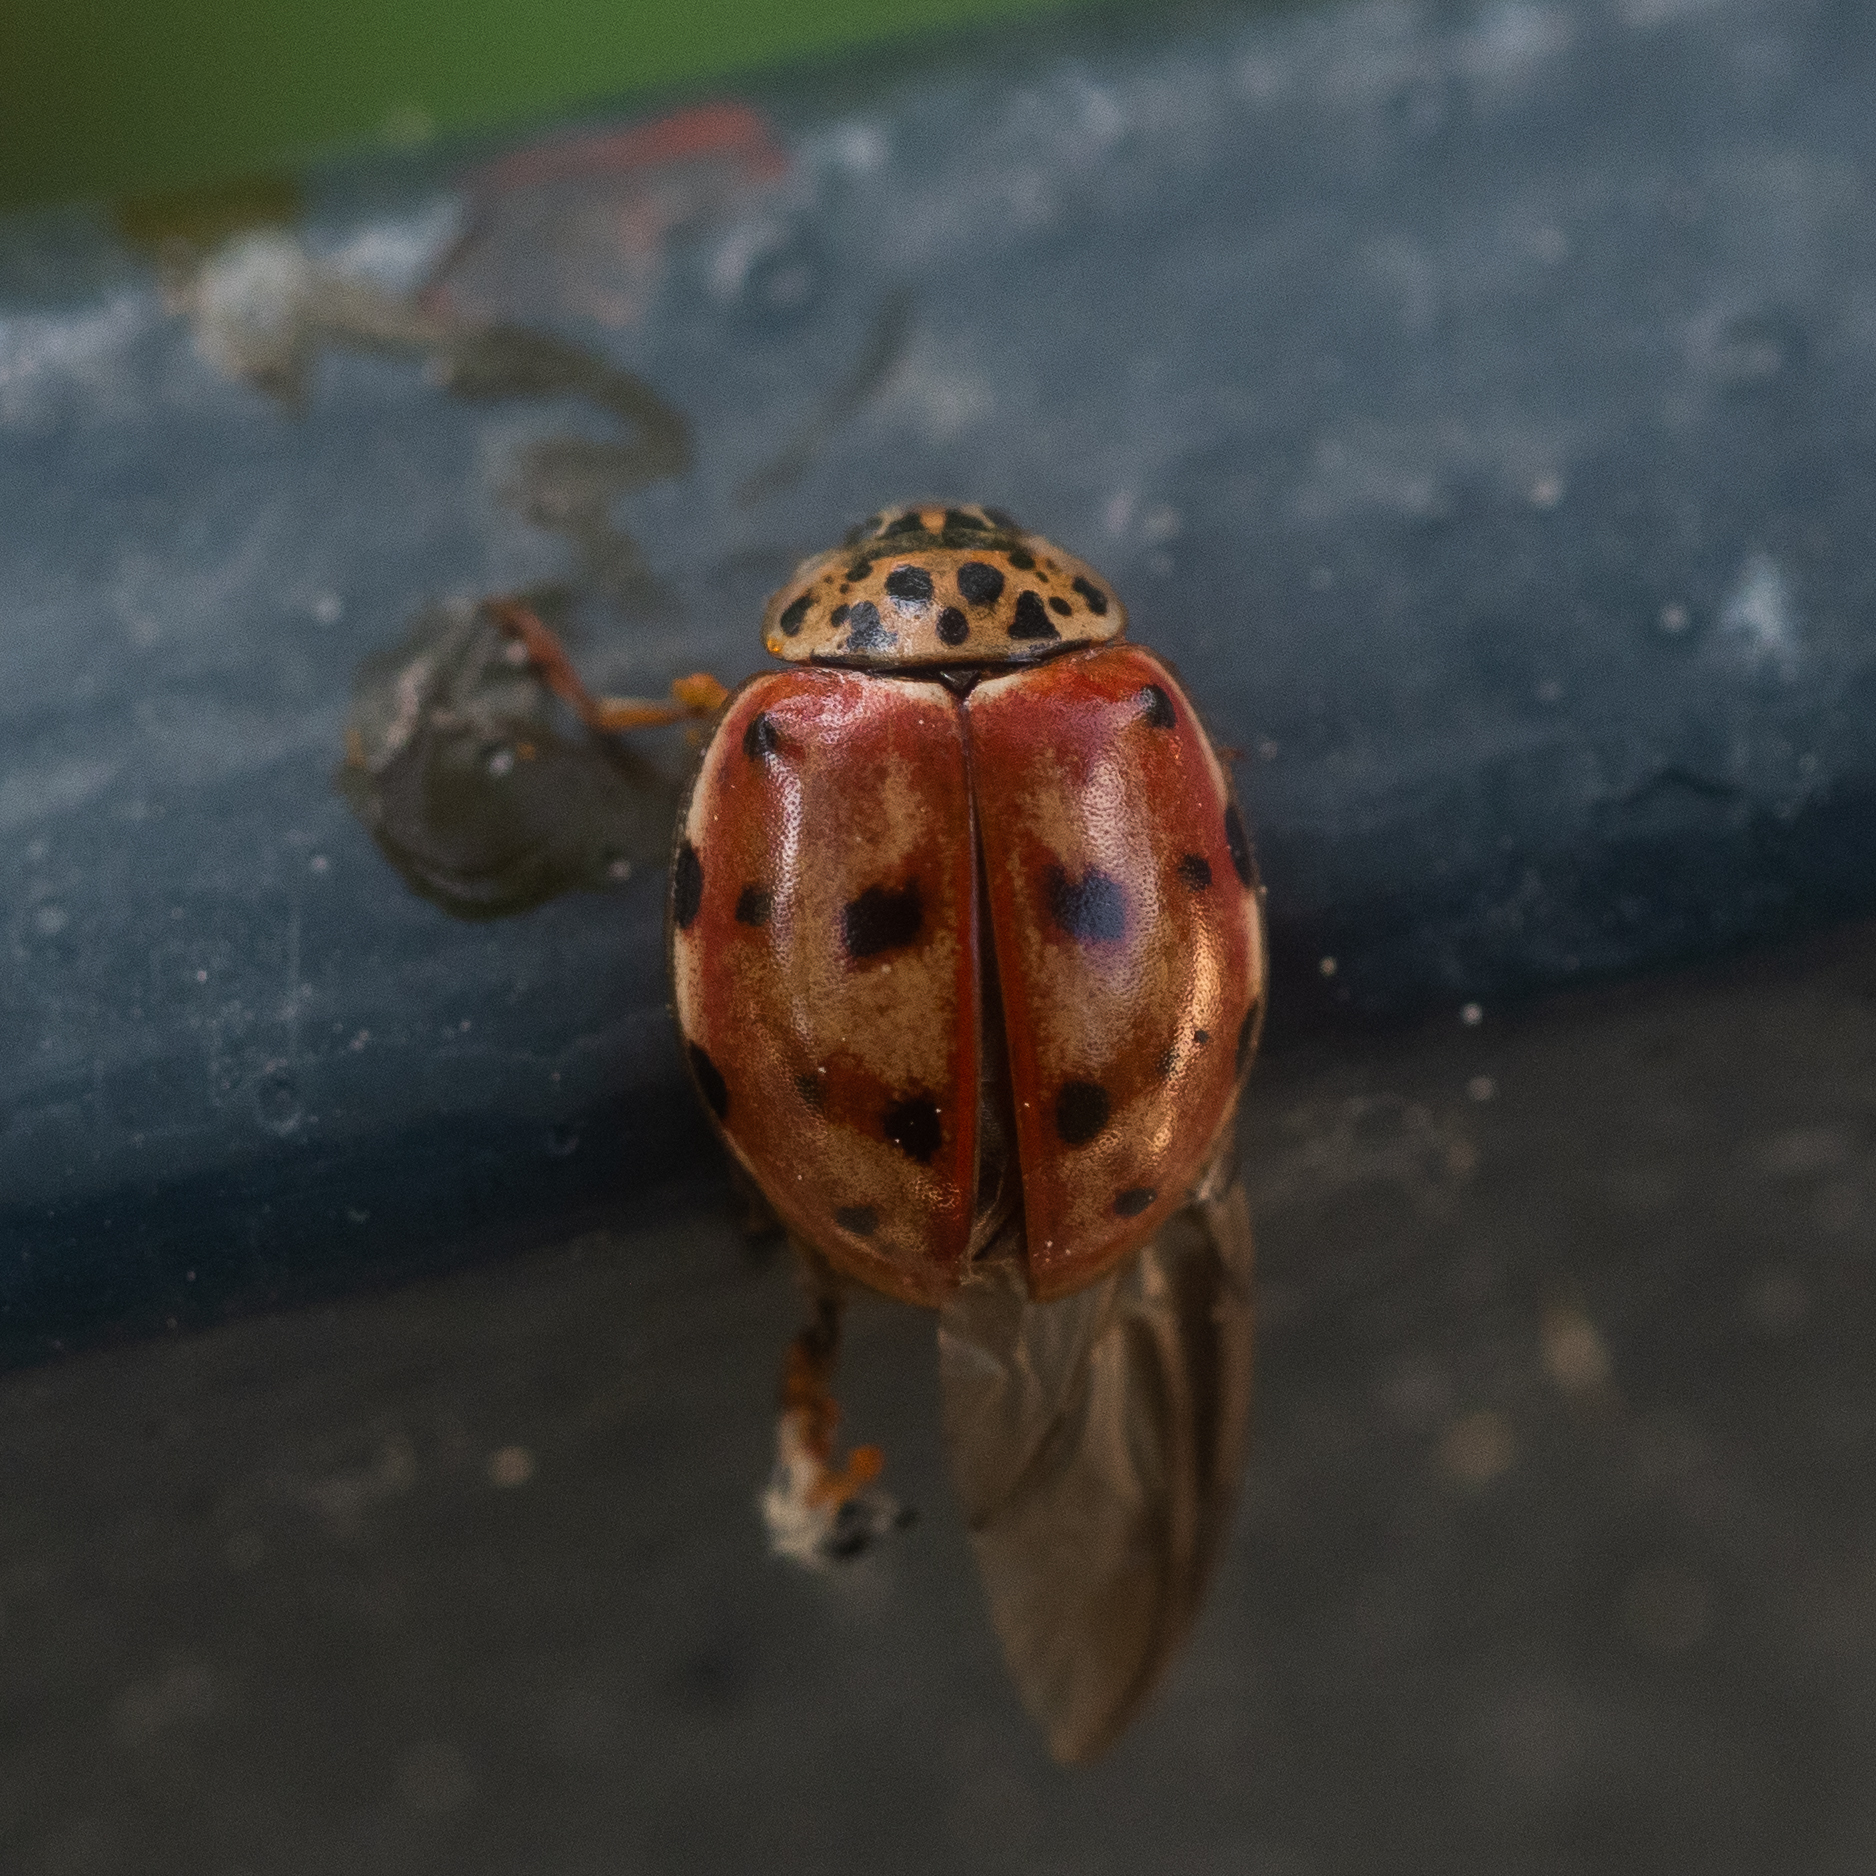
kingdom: Animalia
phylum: Arthropoda
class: Insecta
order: Coleoptera
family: Coccinellidae
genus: Harmonia
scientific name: Harmonia quadripunctata
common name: Cream-streaked ladybird
